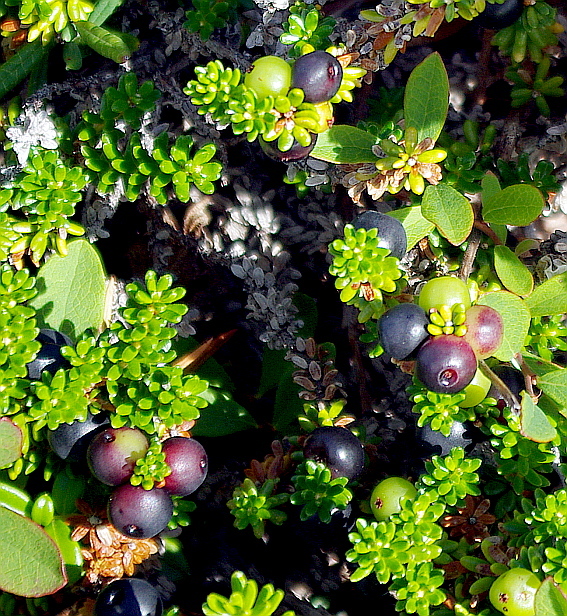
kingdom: Plantae
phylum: Tracheophyta
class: Magnoliopsida
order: Ericales
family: Ericaceae
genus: Empetrum
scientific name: Empetrum nigrum
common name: Black crowberry
